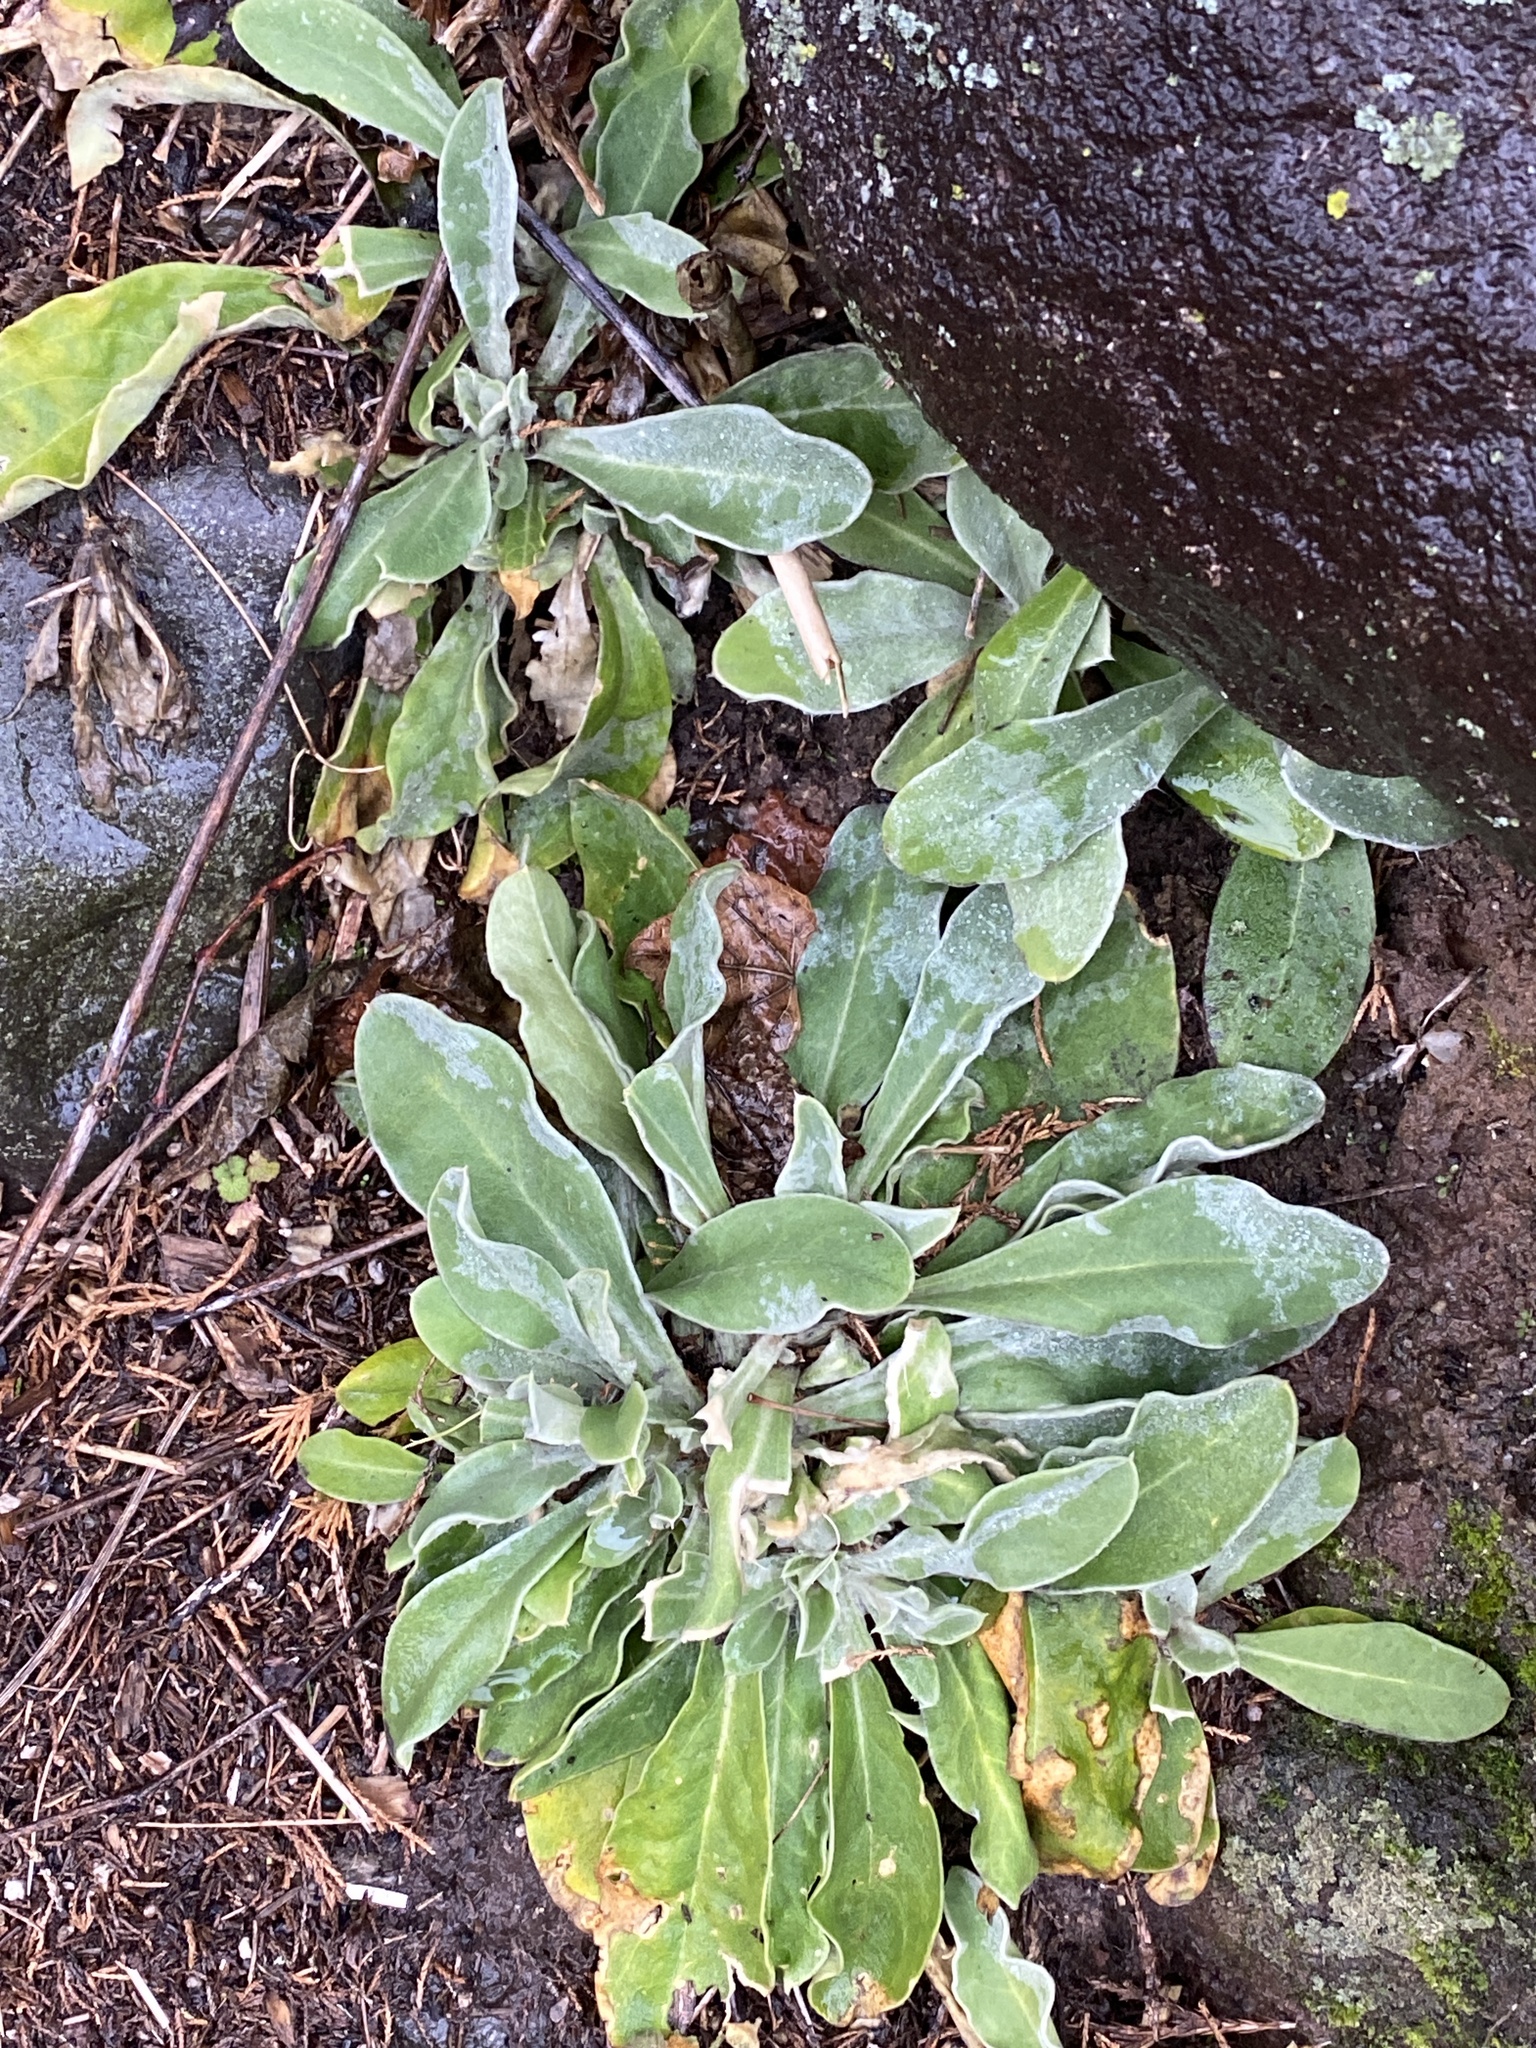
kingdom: Plantae
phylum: Tracheophyta
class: Magnoliopsida
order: Caryophyllales
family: Caryophyllaceae
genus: Silene
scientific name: Silene coronaria
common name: Rose campion
